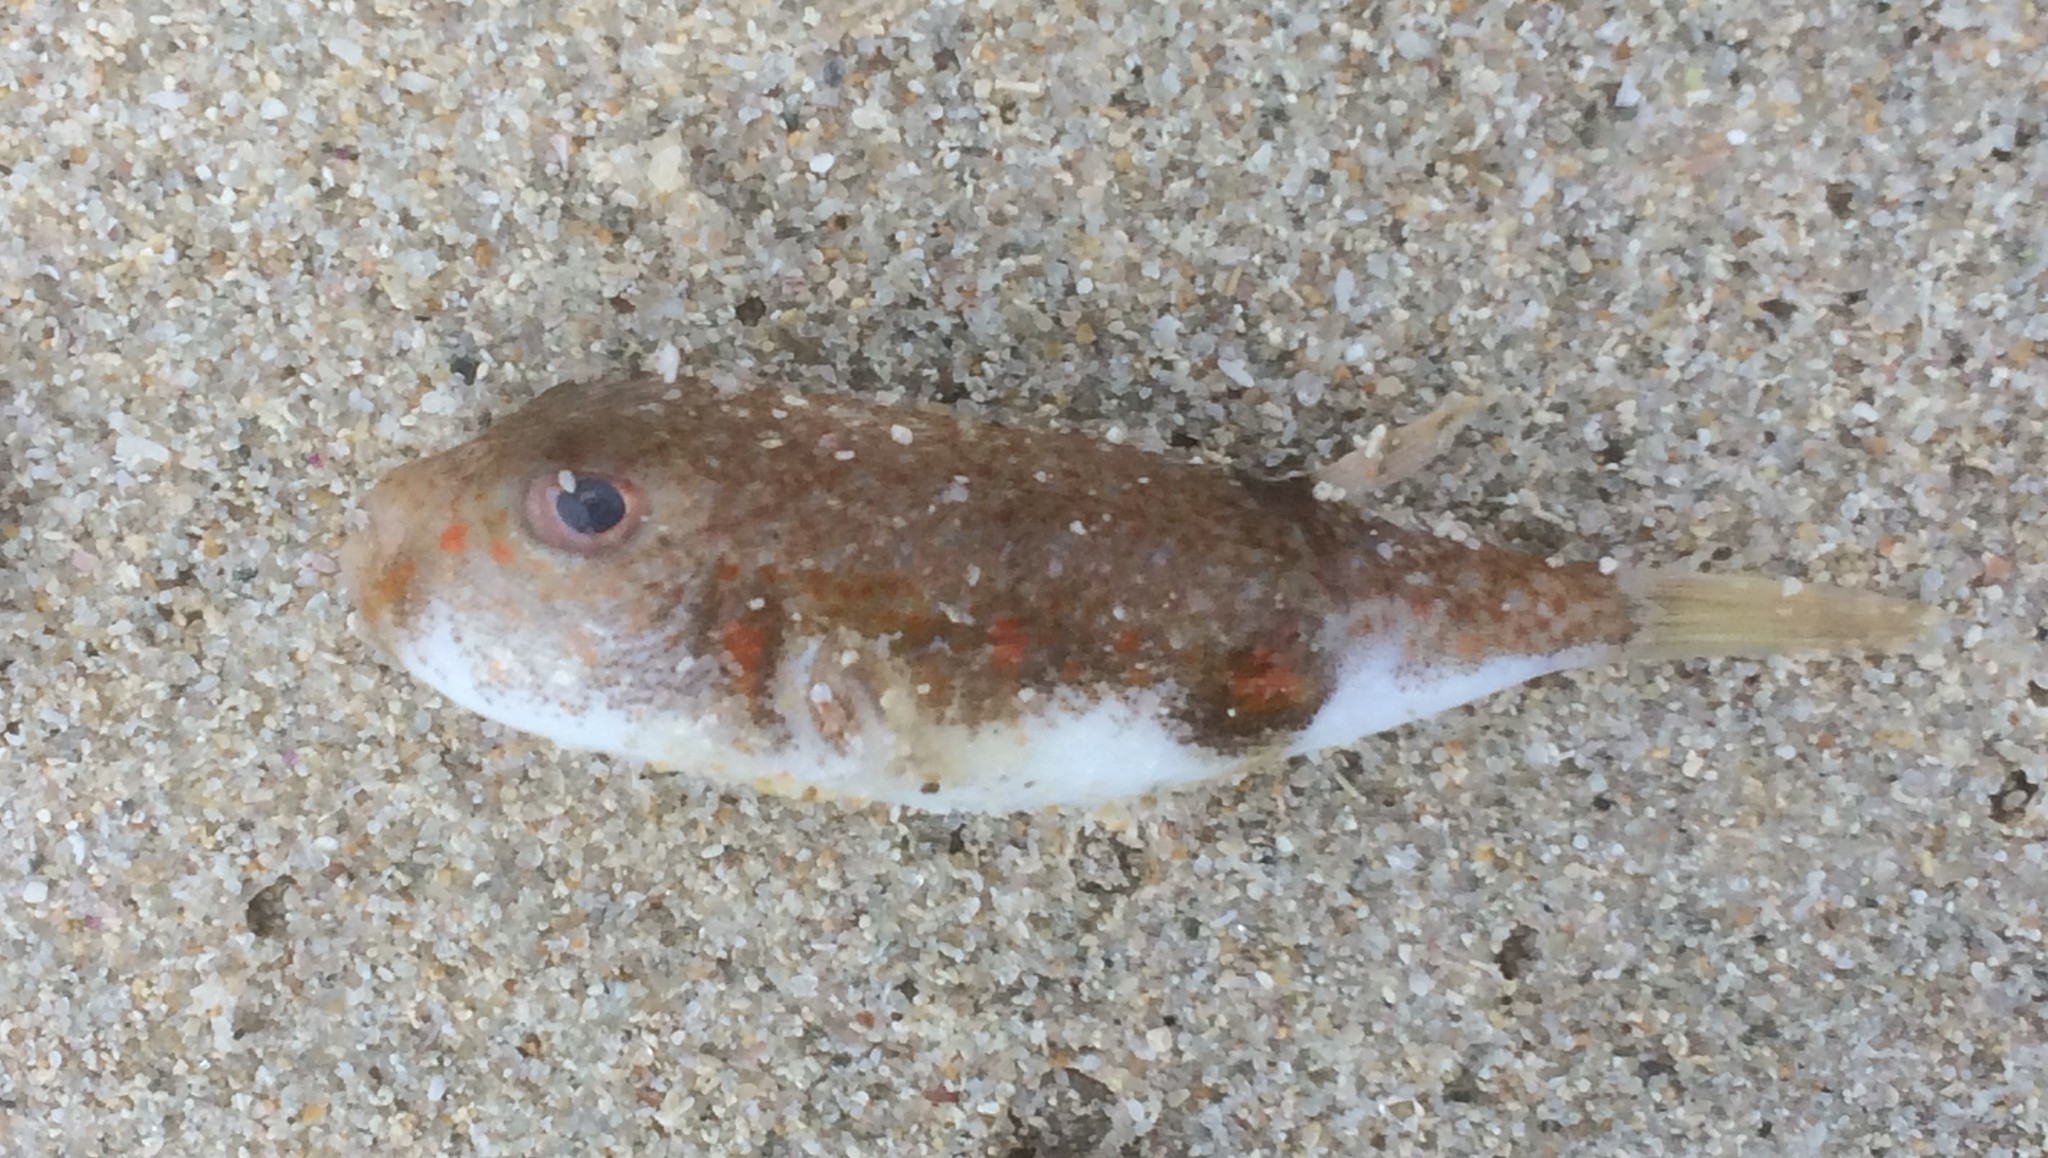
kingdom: Animalia
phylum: Chordata
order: Tetraodontiformes
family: Tetraodontidae
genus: Polyspina
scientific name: Polyspina piosae
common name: Orange-barred pufferfish
